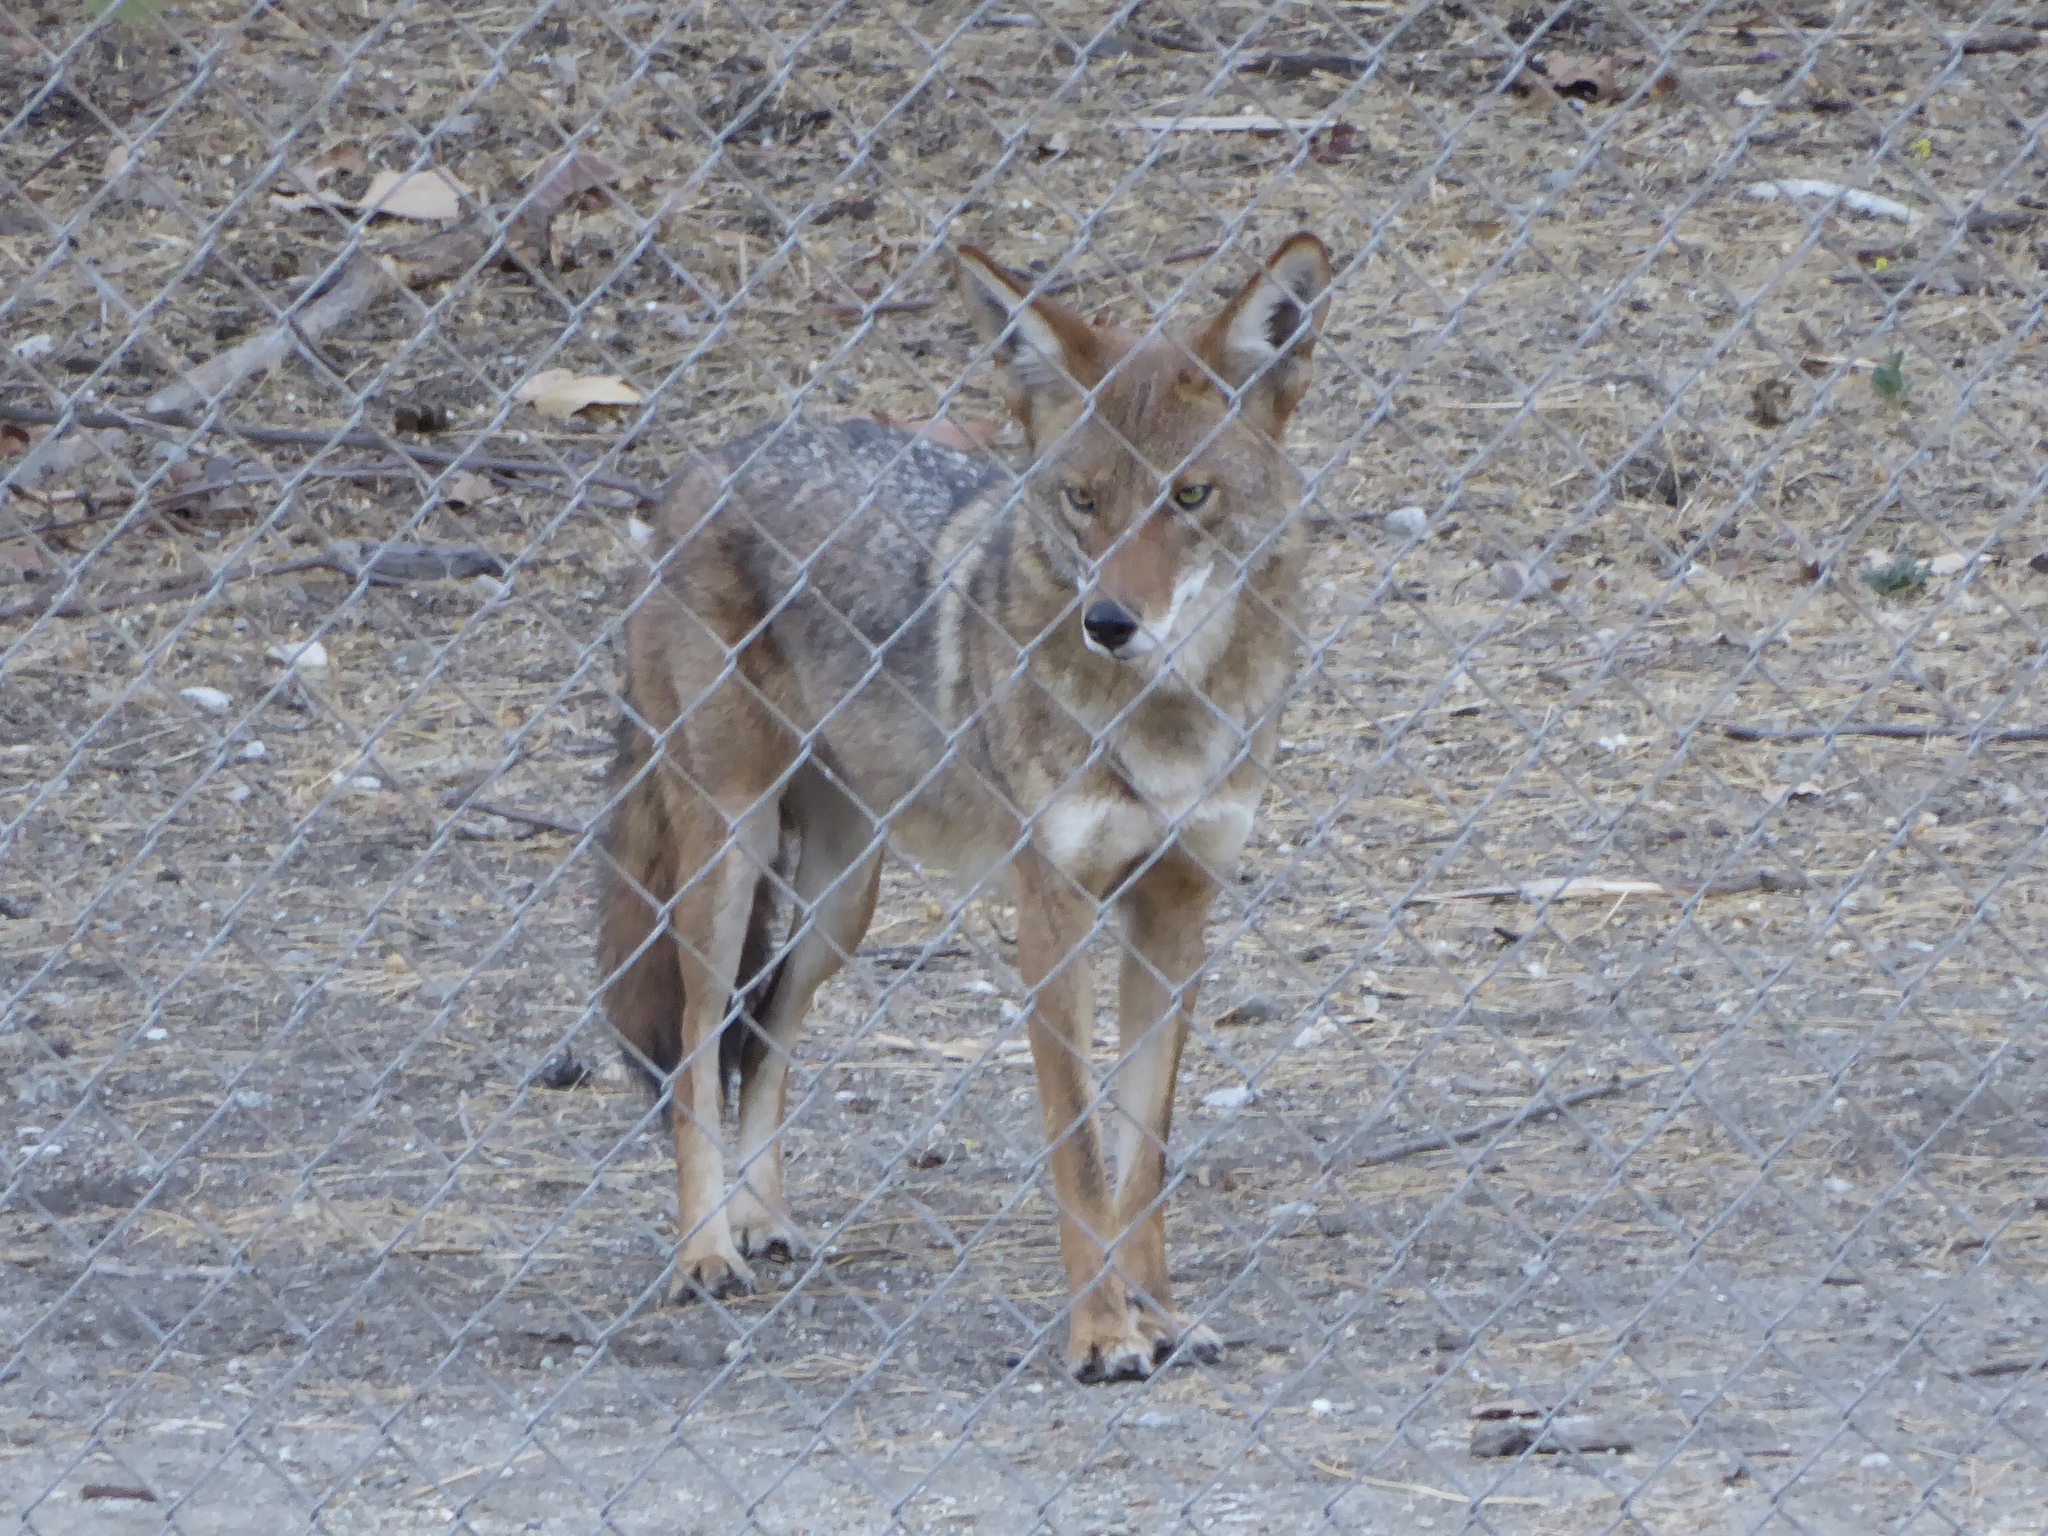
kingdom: Animalia
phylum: Chordata
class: Mammalia
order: Carnivora
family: Canidae
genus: Canis
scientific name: Canis latrans
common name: Coyote
